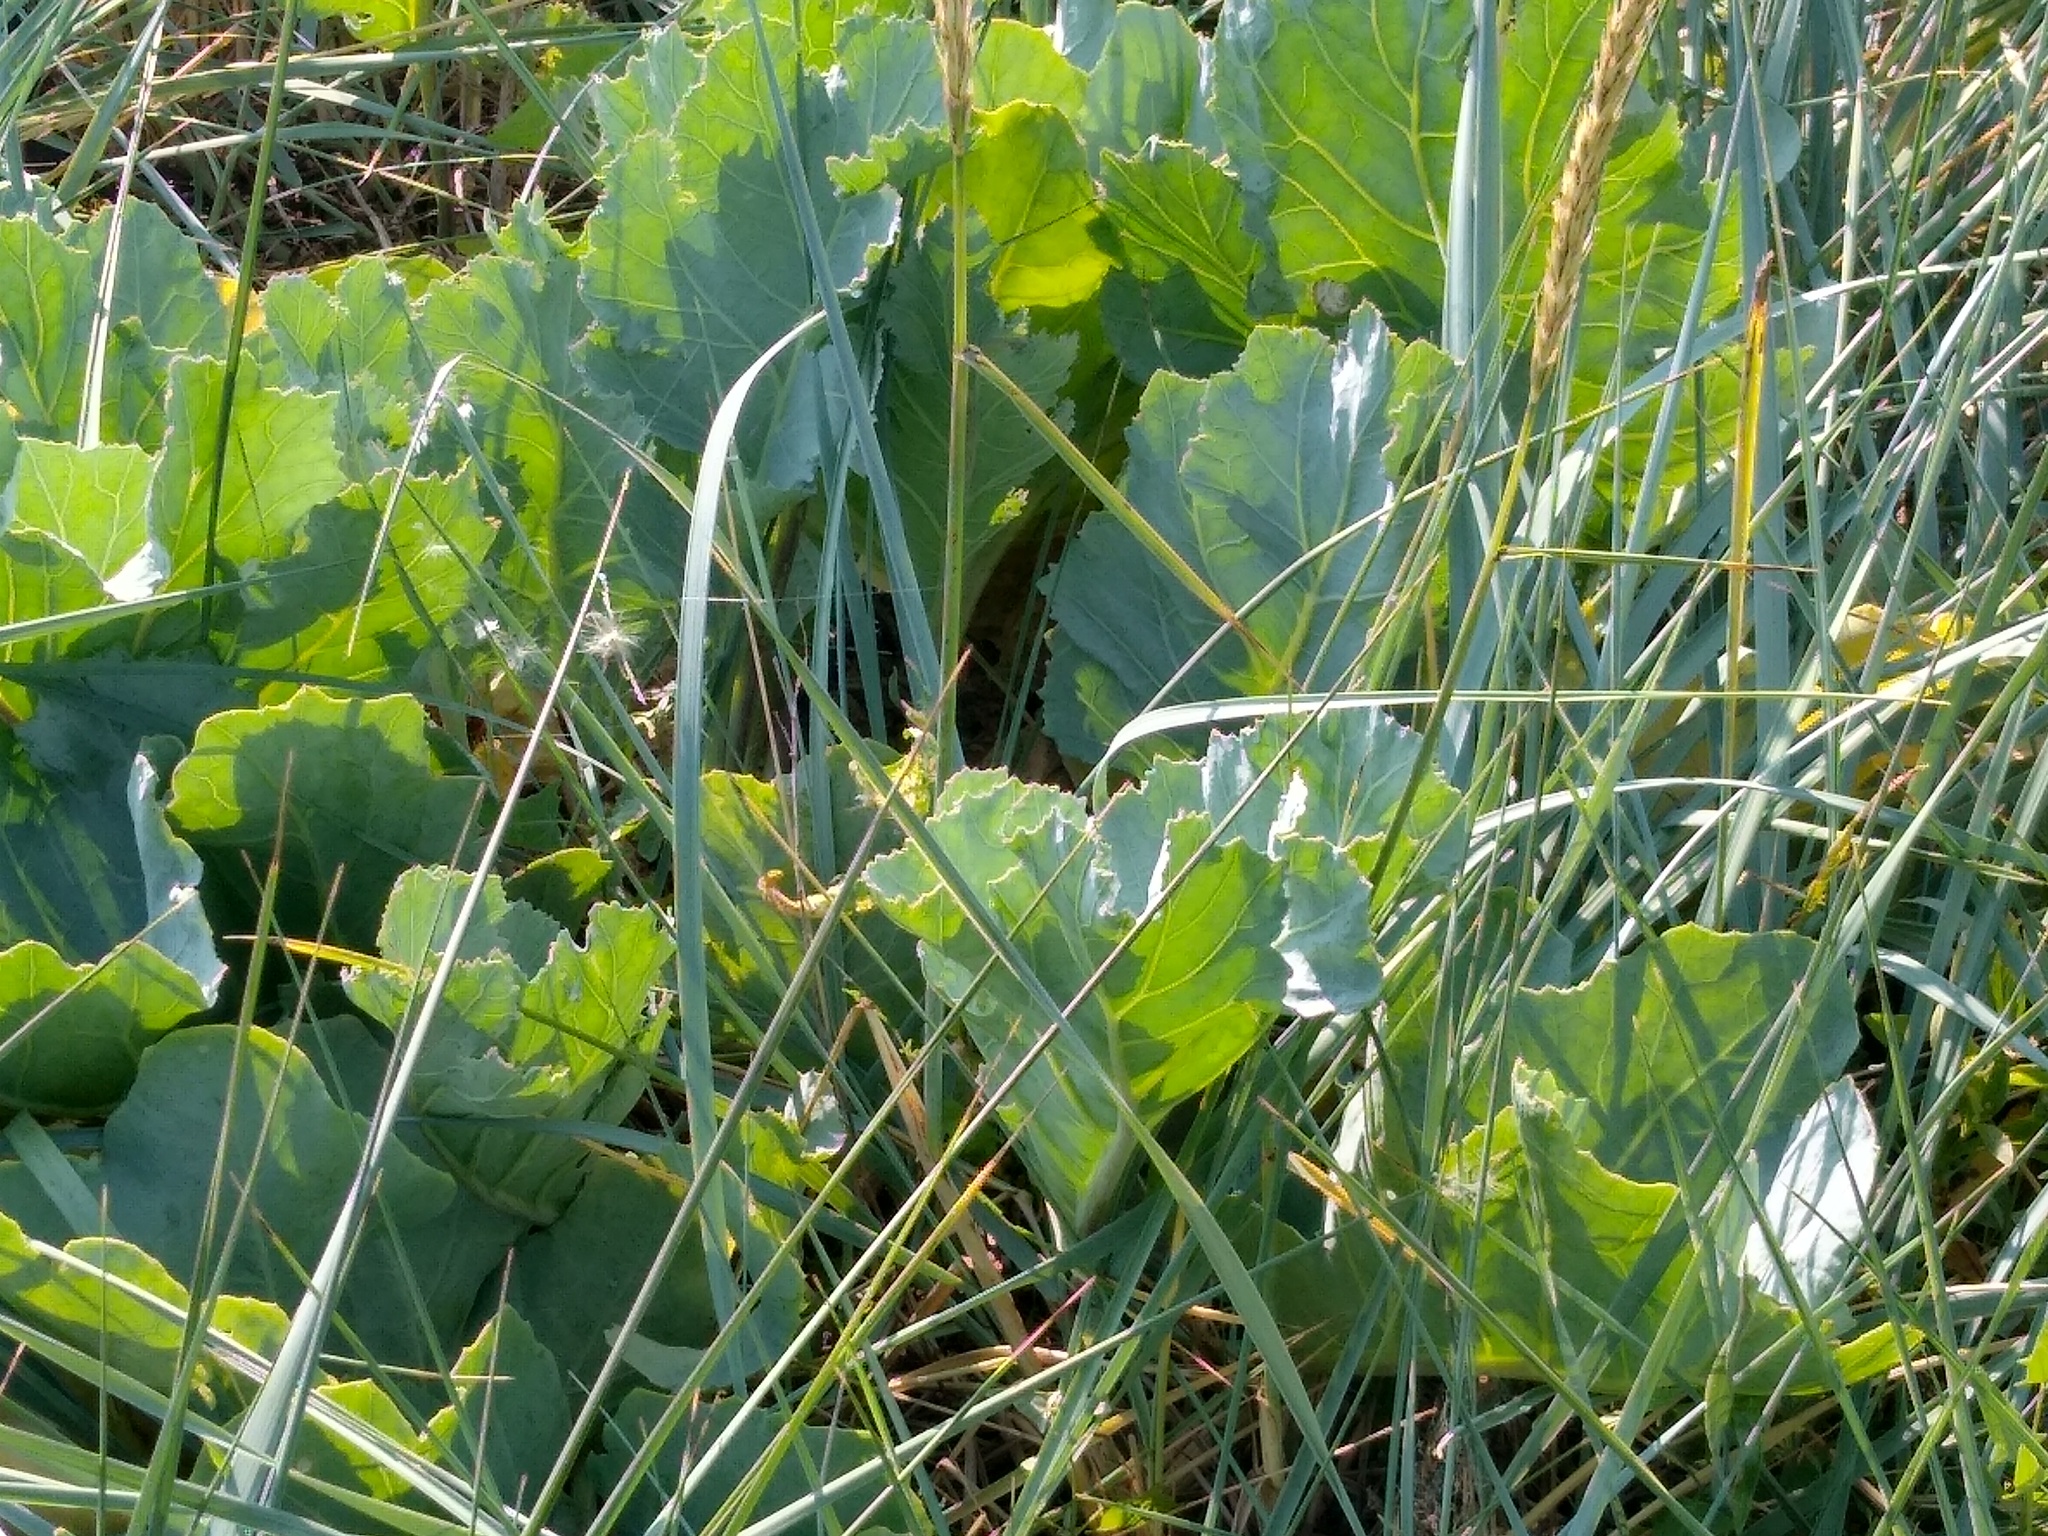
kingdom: Plantae
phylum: Tracheophyta
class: Magnoliopsida
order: Brassicales
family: Brassicaceae
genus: Crambe
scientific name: Crambe maritima
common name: Sea-kale
